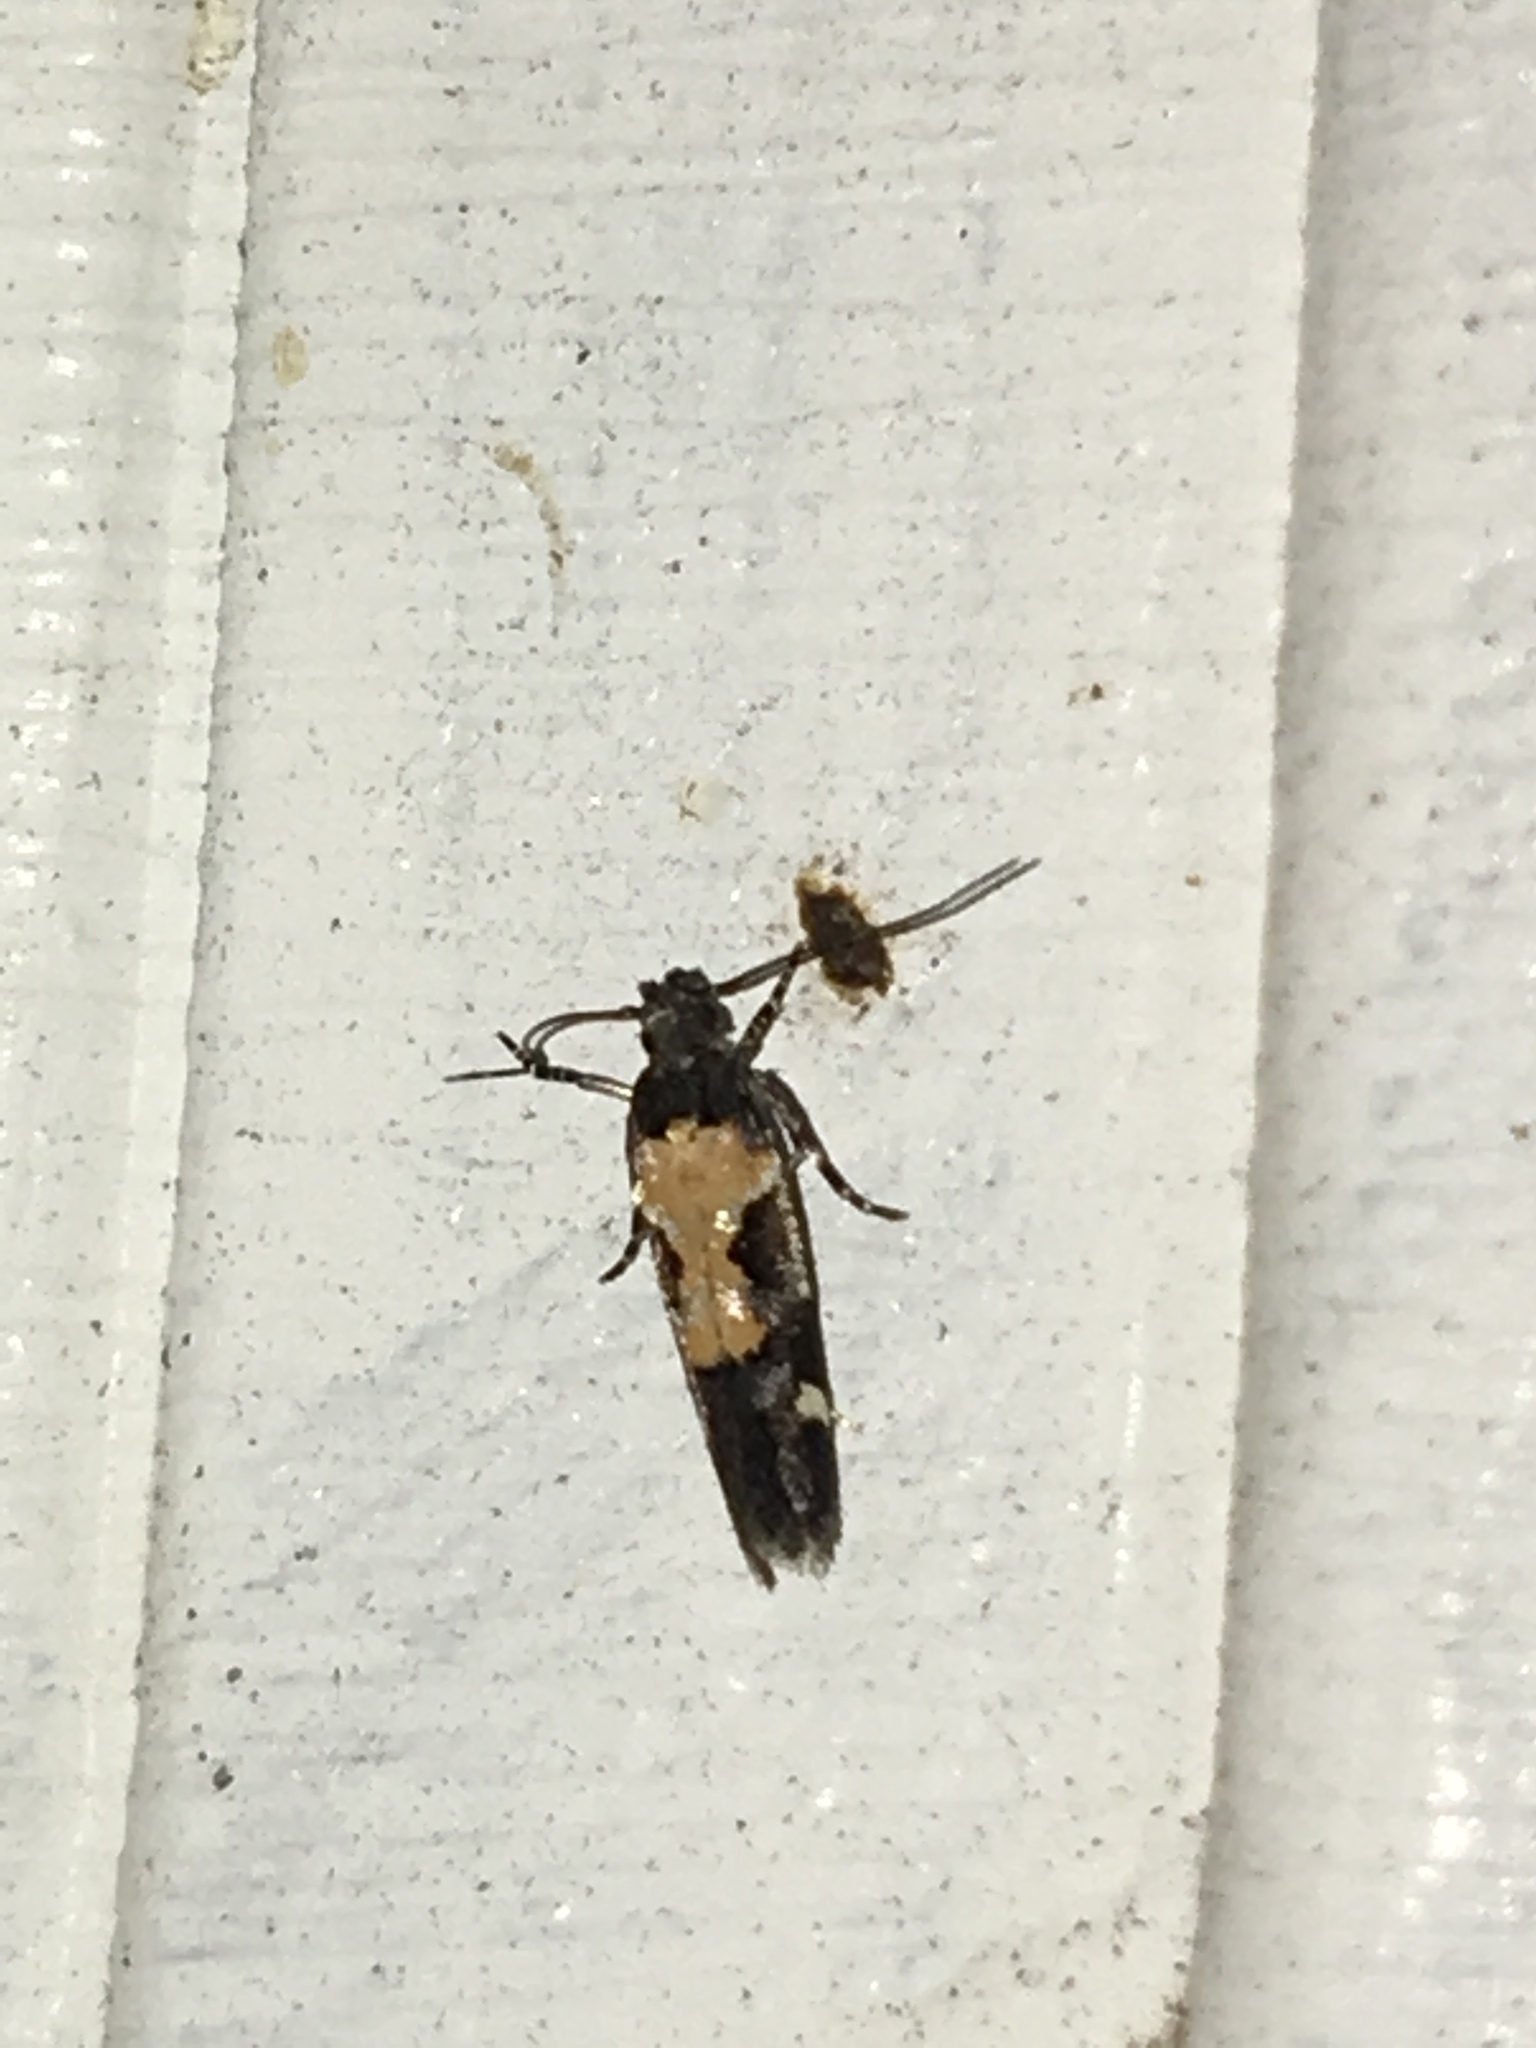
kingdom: Animalia
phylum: Arthropoda
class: Insecta
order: Lepidoptera
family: Gelechiidae
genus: Stegasta
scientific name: Stegasta bosqueella
